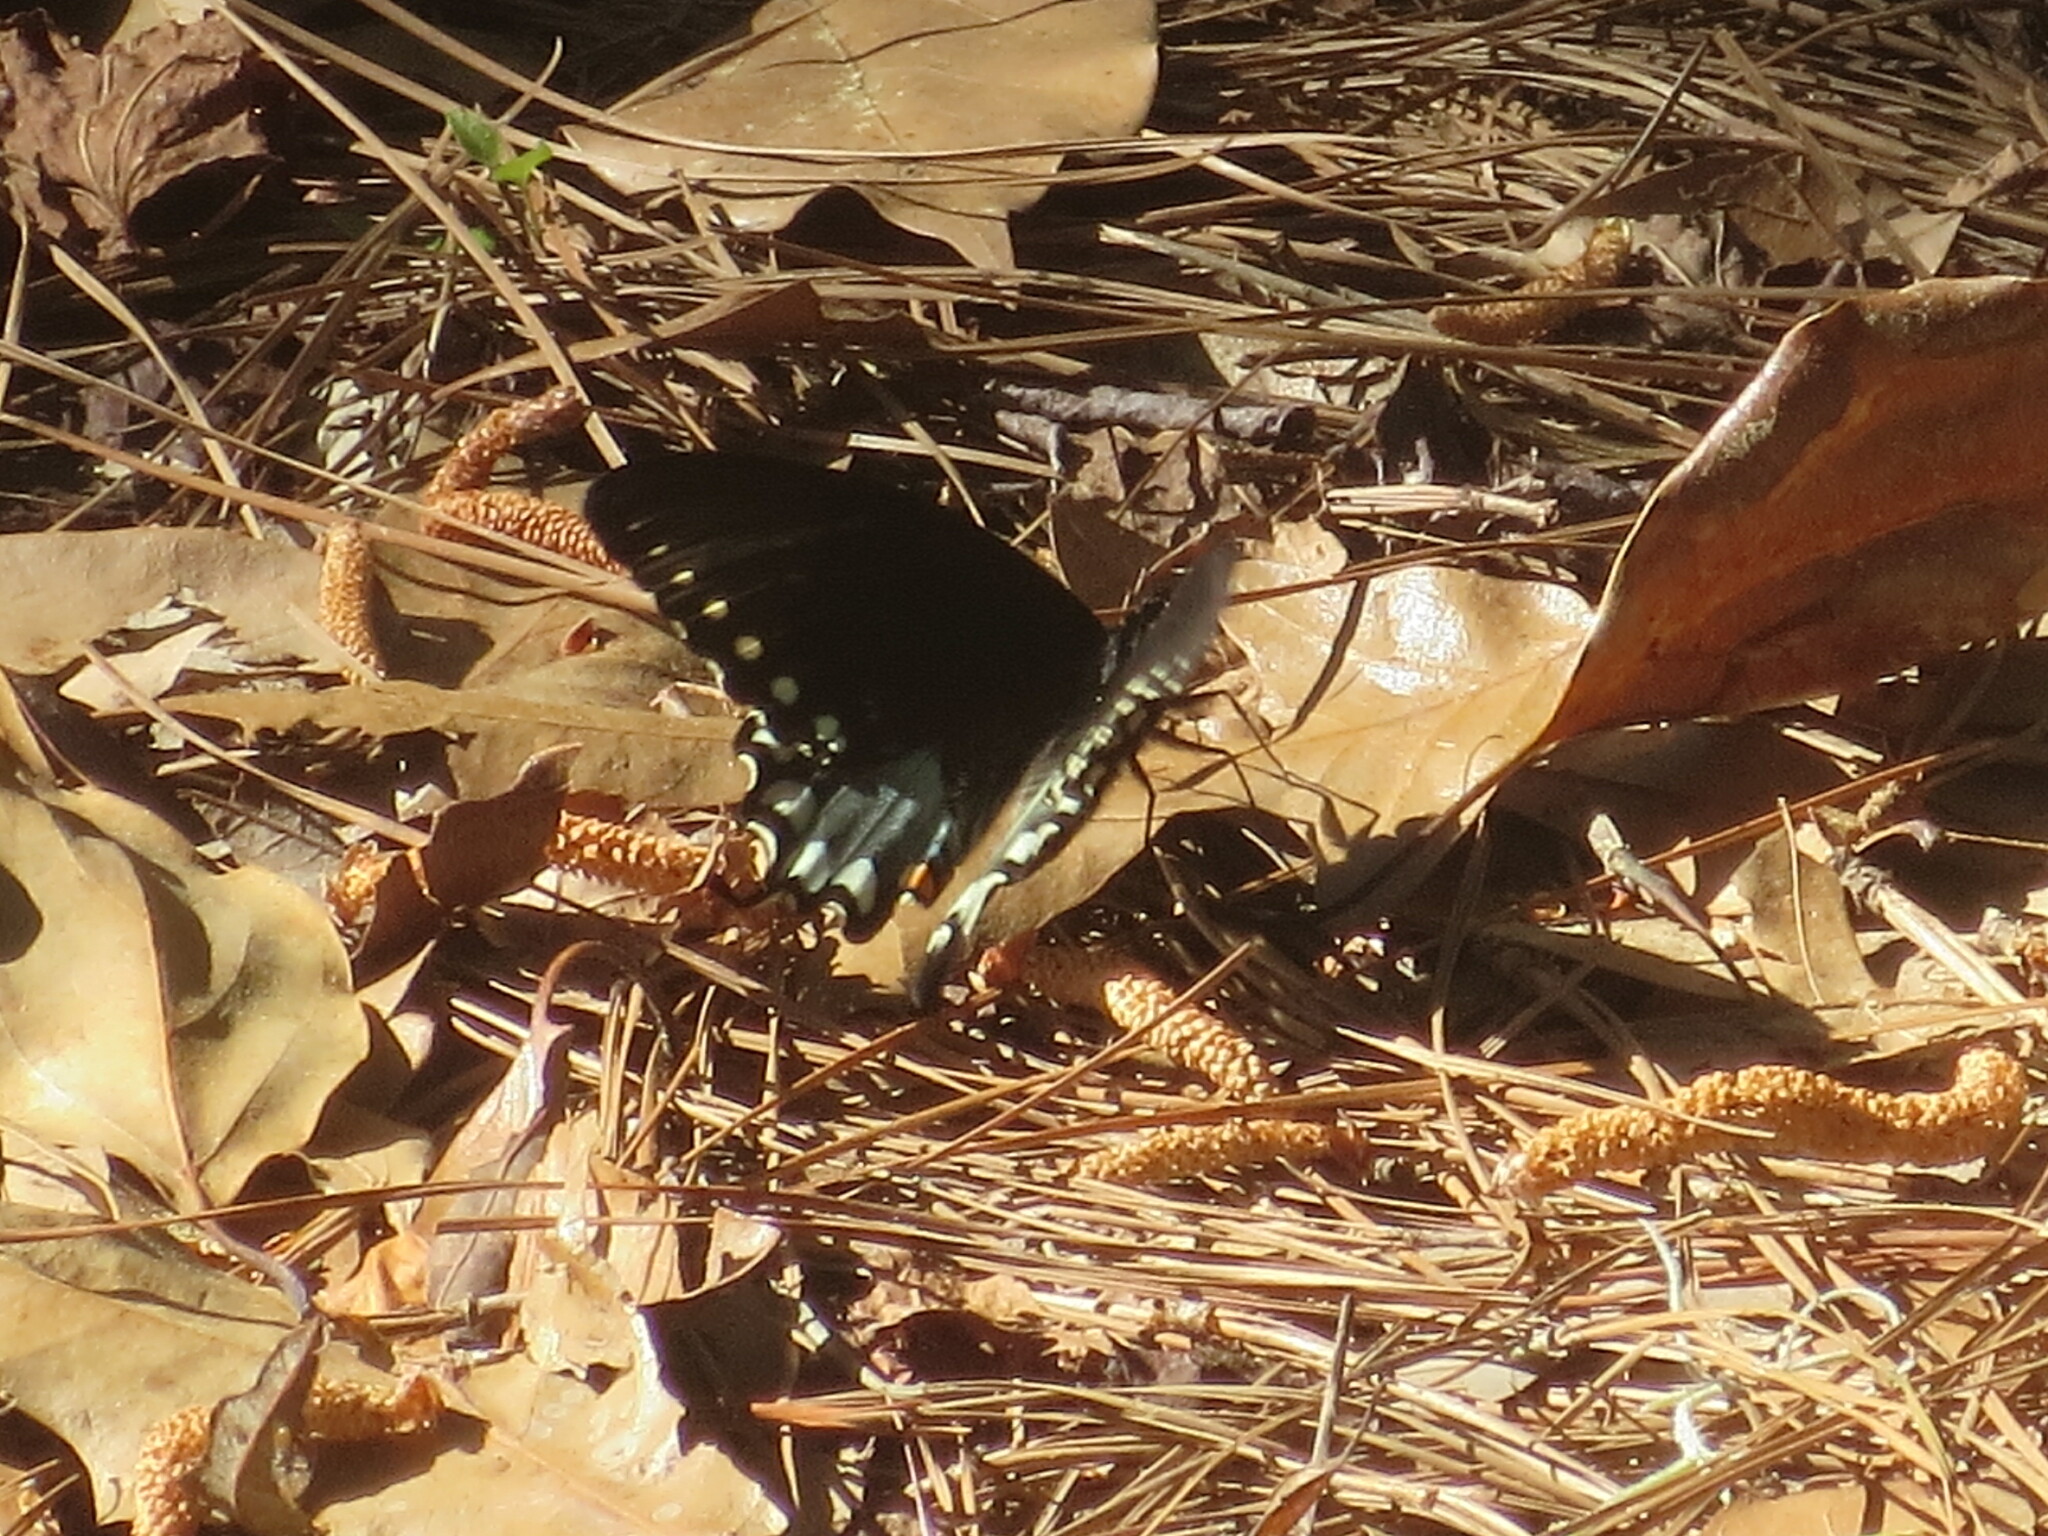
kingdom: Animalia
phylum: Arthropoda
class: Insecta
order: Lepidoptera
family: Papilionidae
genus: Papilio
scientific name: Papilio troilus
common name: Spicebush swallowtail
